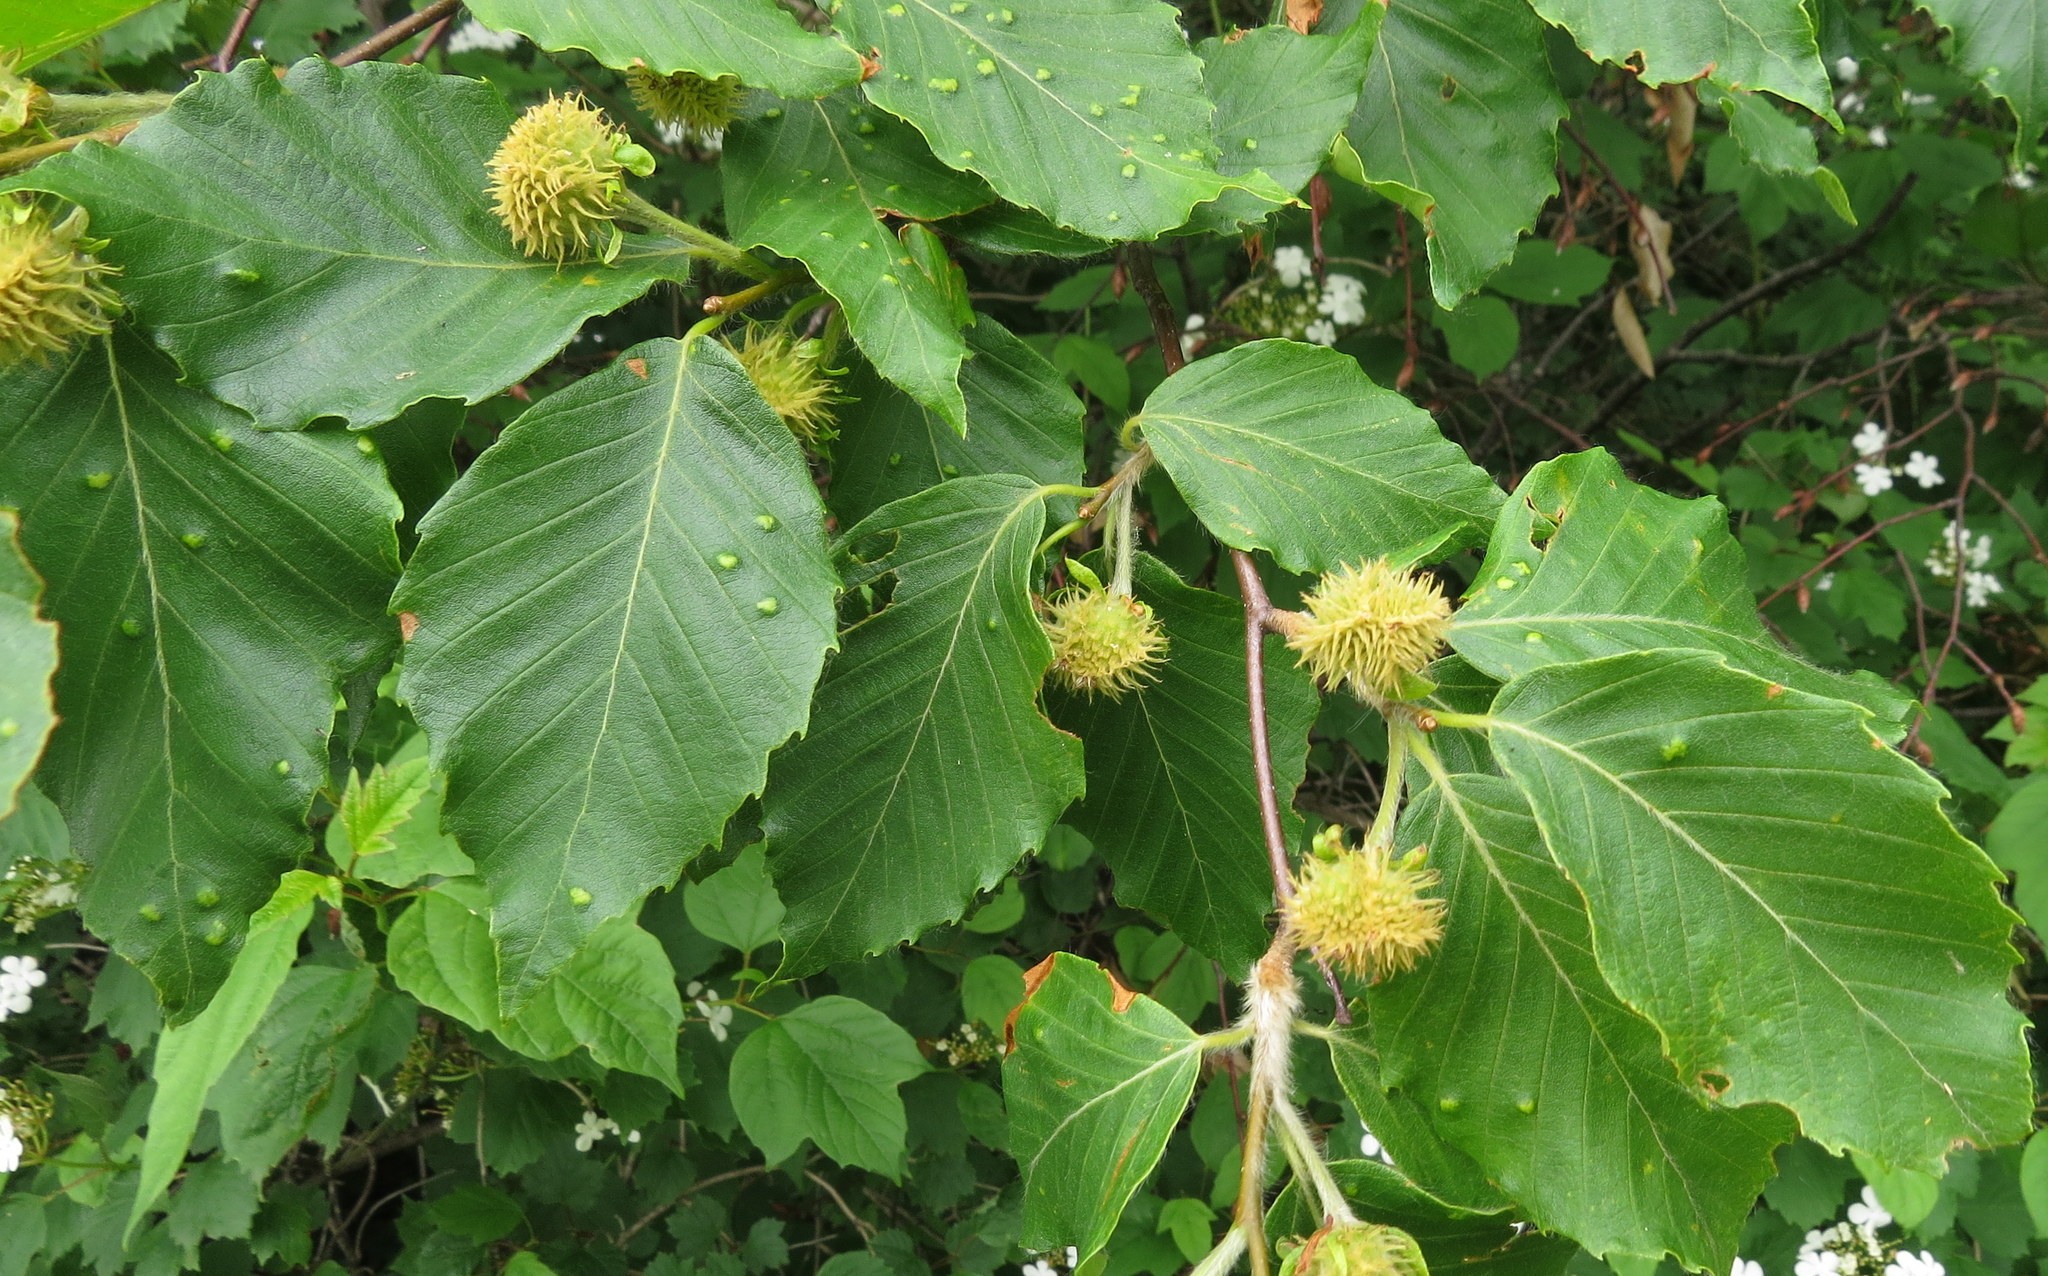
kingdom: Plantae
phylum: Tracheophyta
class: Magnoliopsida
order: Fagales
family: Fagaceae
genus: Fagus
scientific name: Fagus grandifolia
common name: American beech
